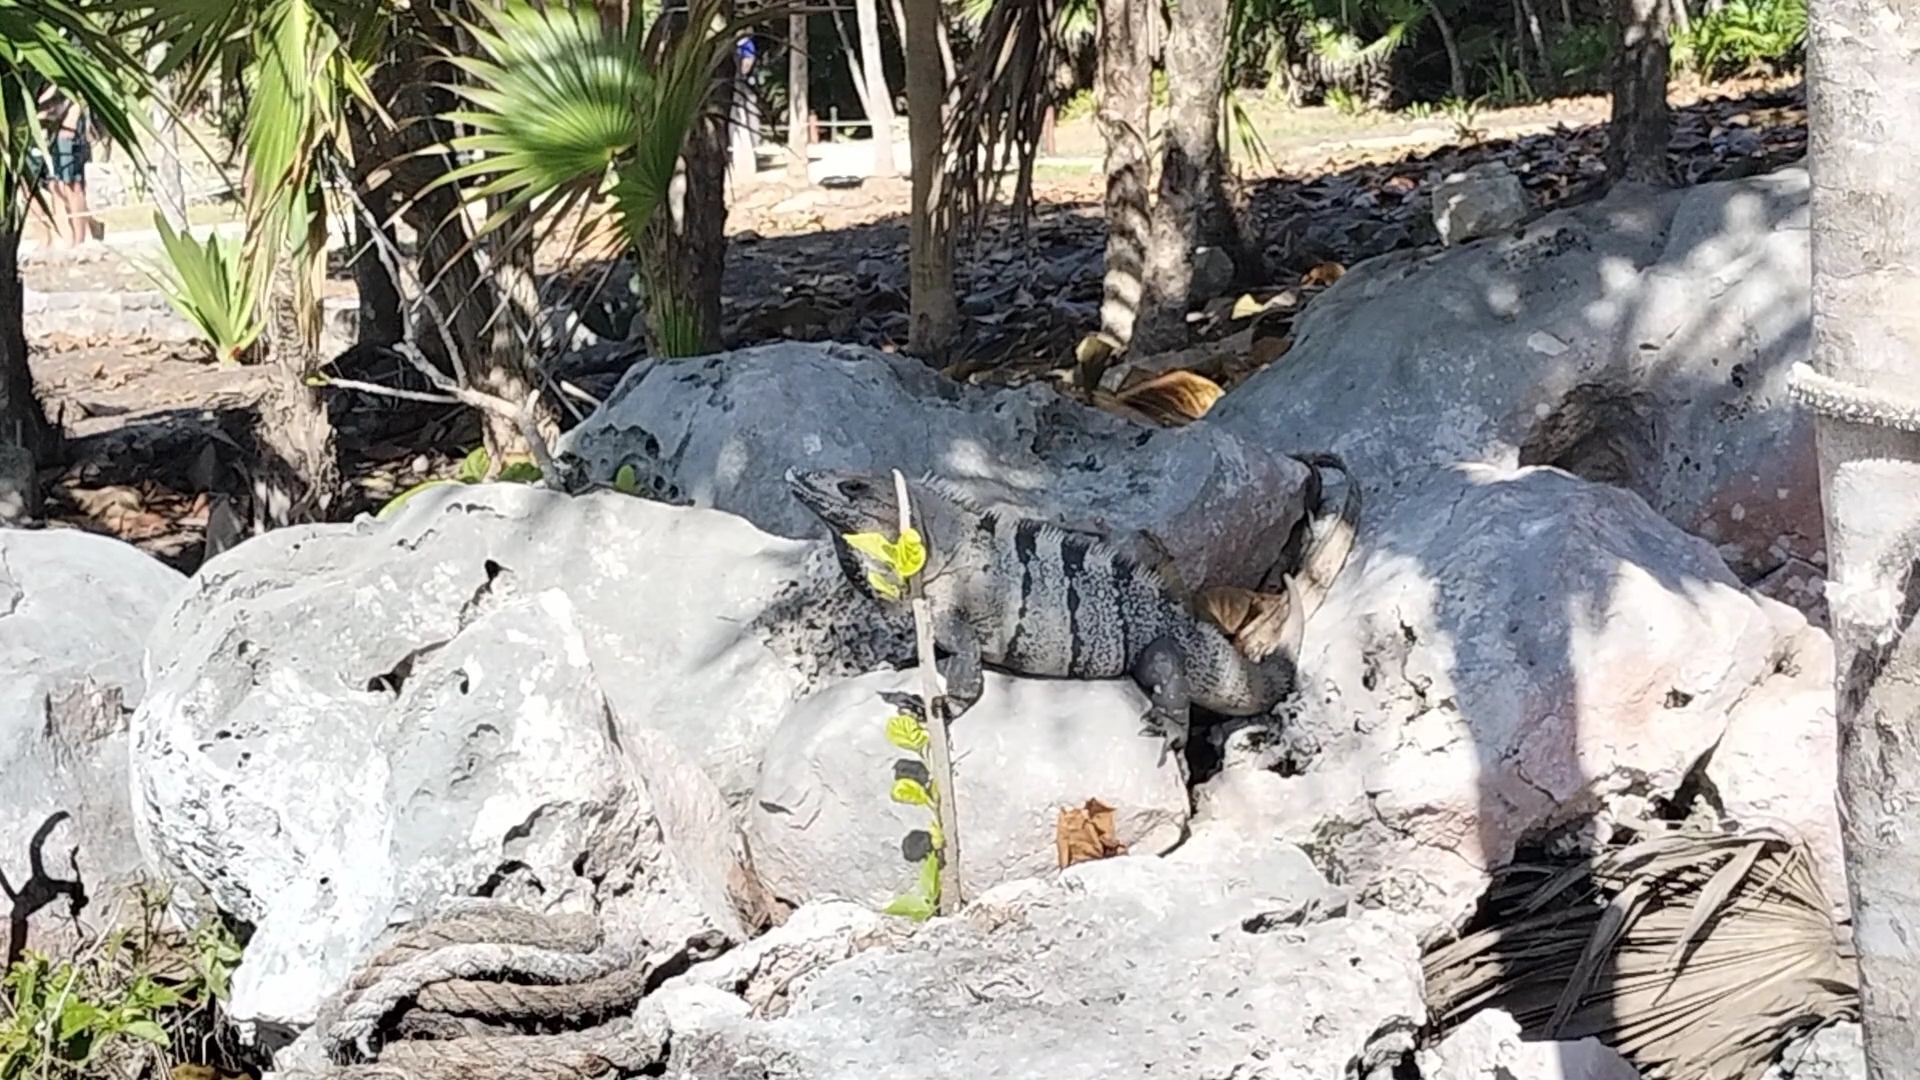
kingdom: Animalia
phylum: Chordata
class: Squamata
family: Iguanidae
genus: Ctenosaura
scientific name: Ctenosaura similis
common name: Black spiny-tailed iguana
